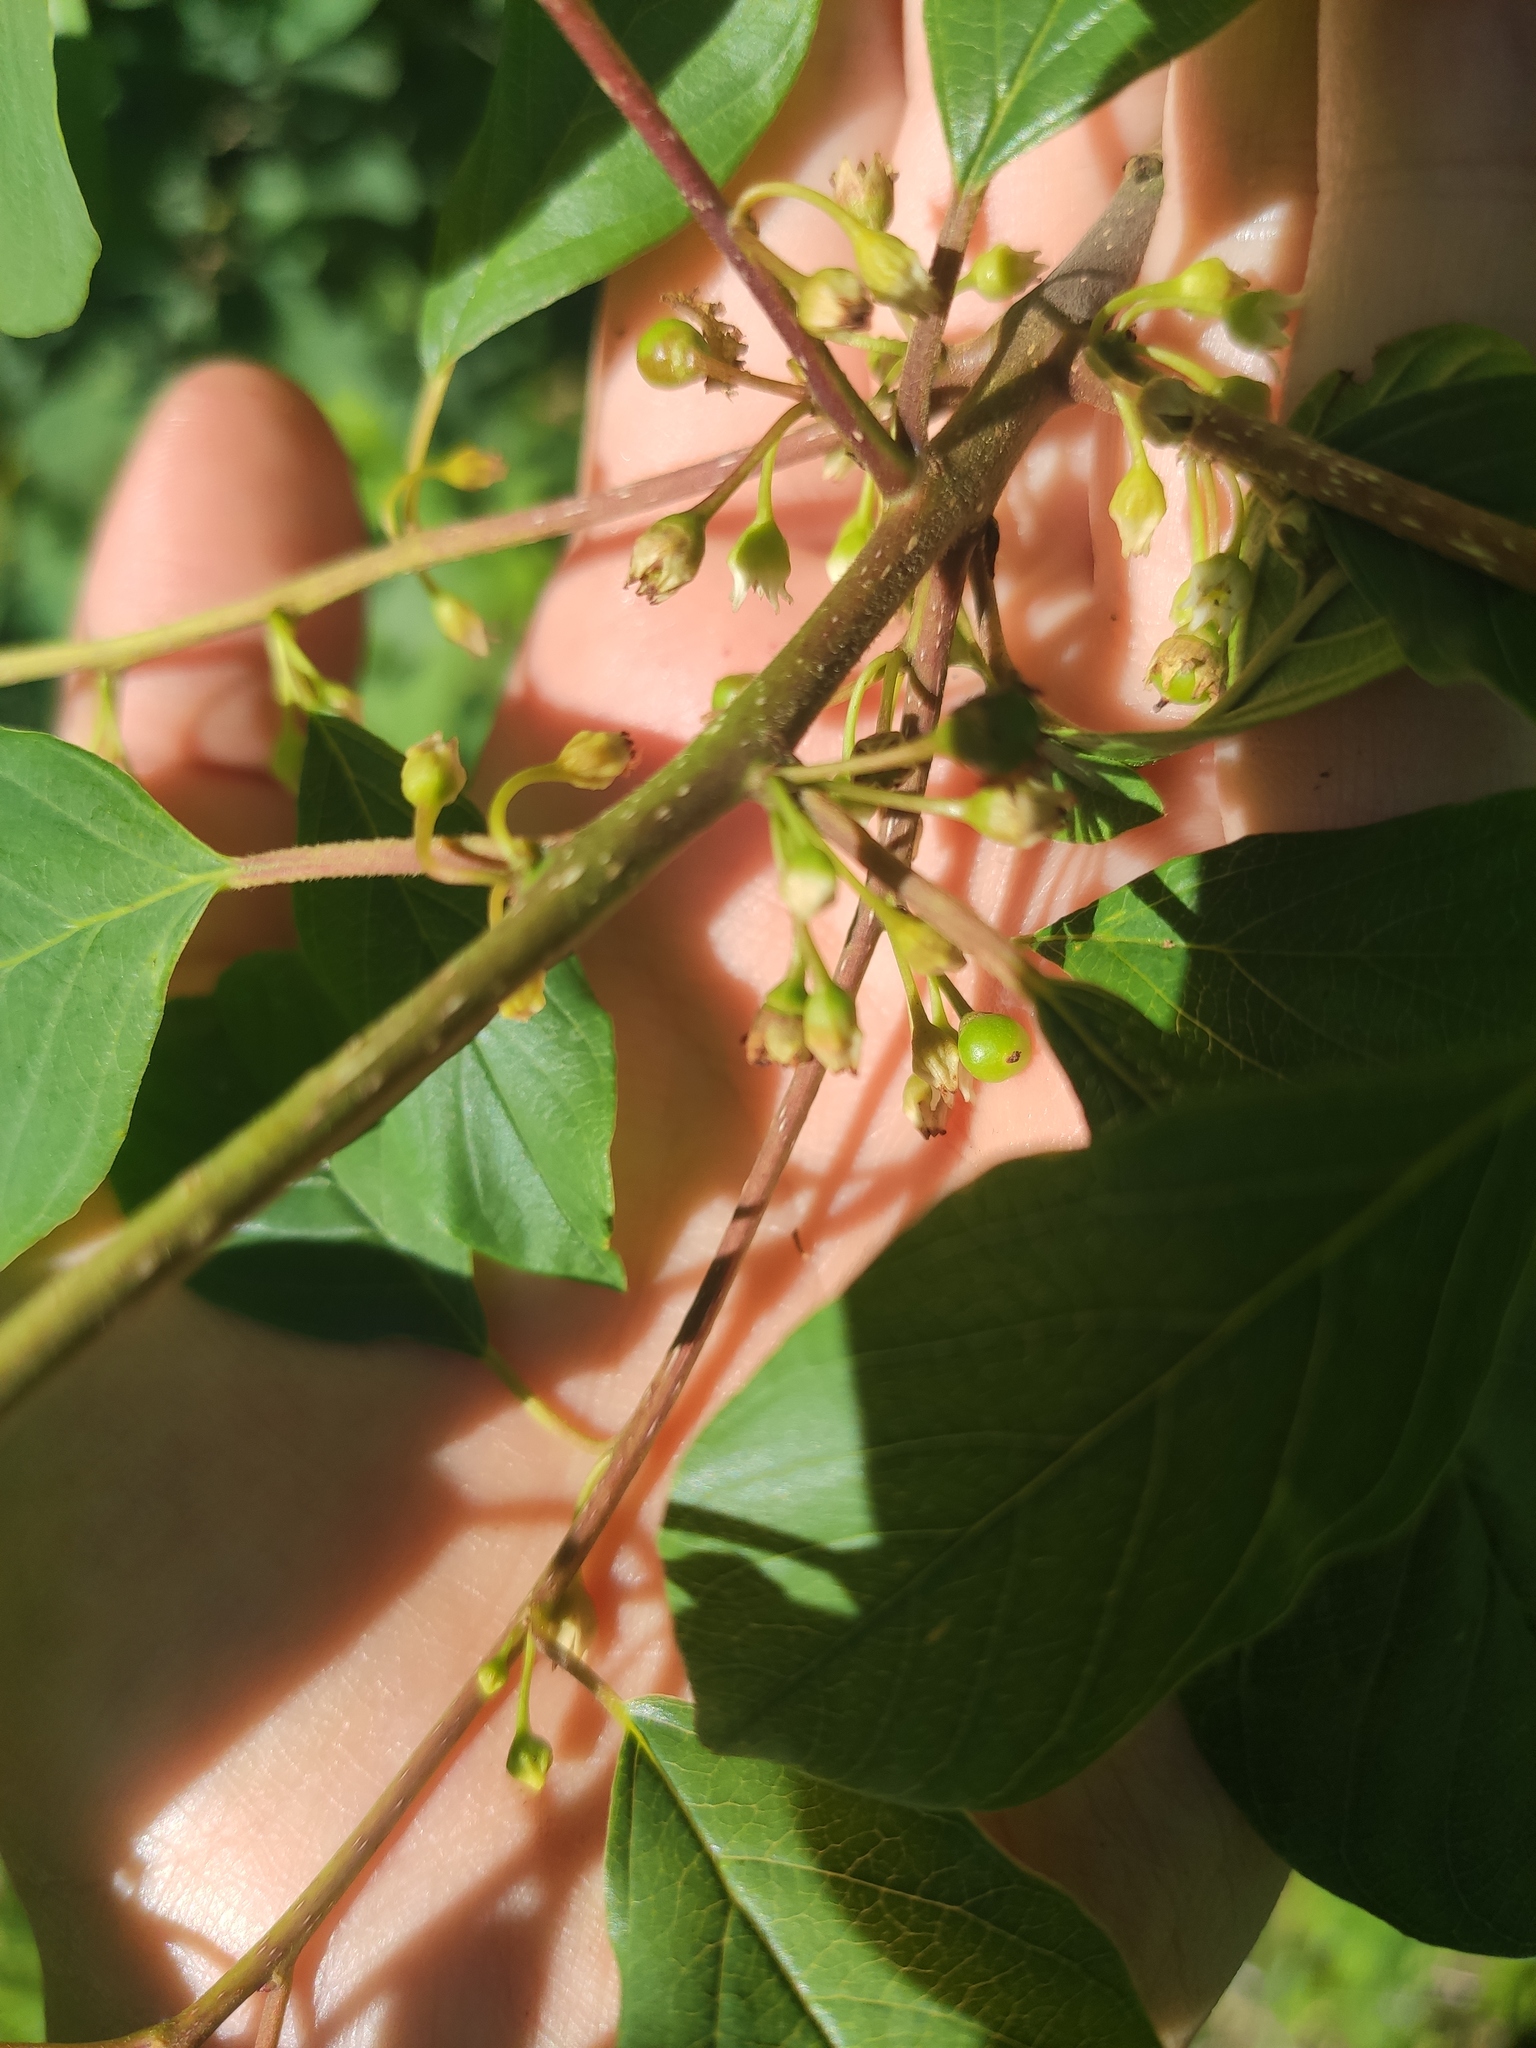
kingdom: Plantae
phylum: Tracheophyta
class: Magnoliopsida
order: Rosales
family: Rhamnaceae
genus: Frangula
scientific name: Frangula alnus
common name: Alder buckthorn
